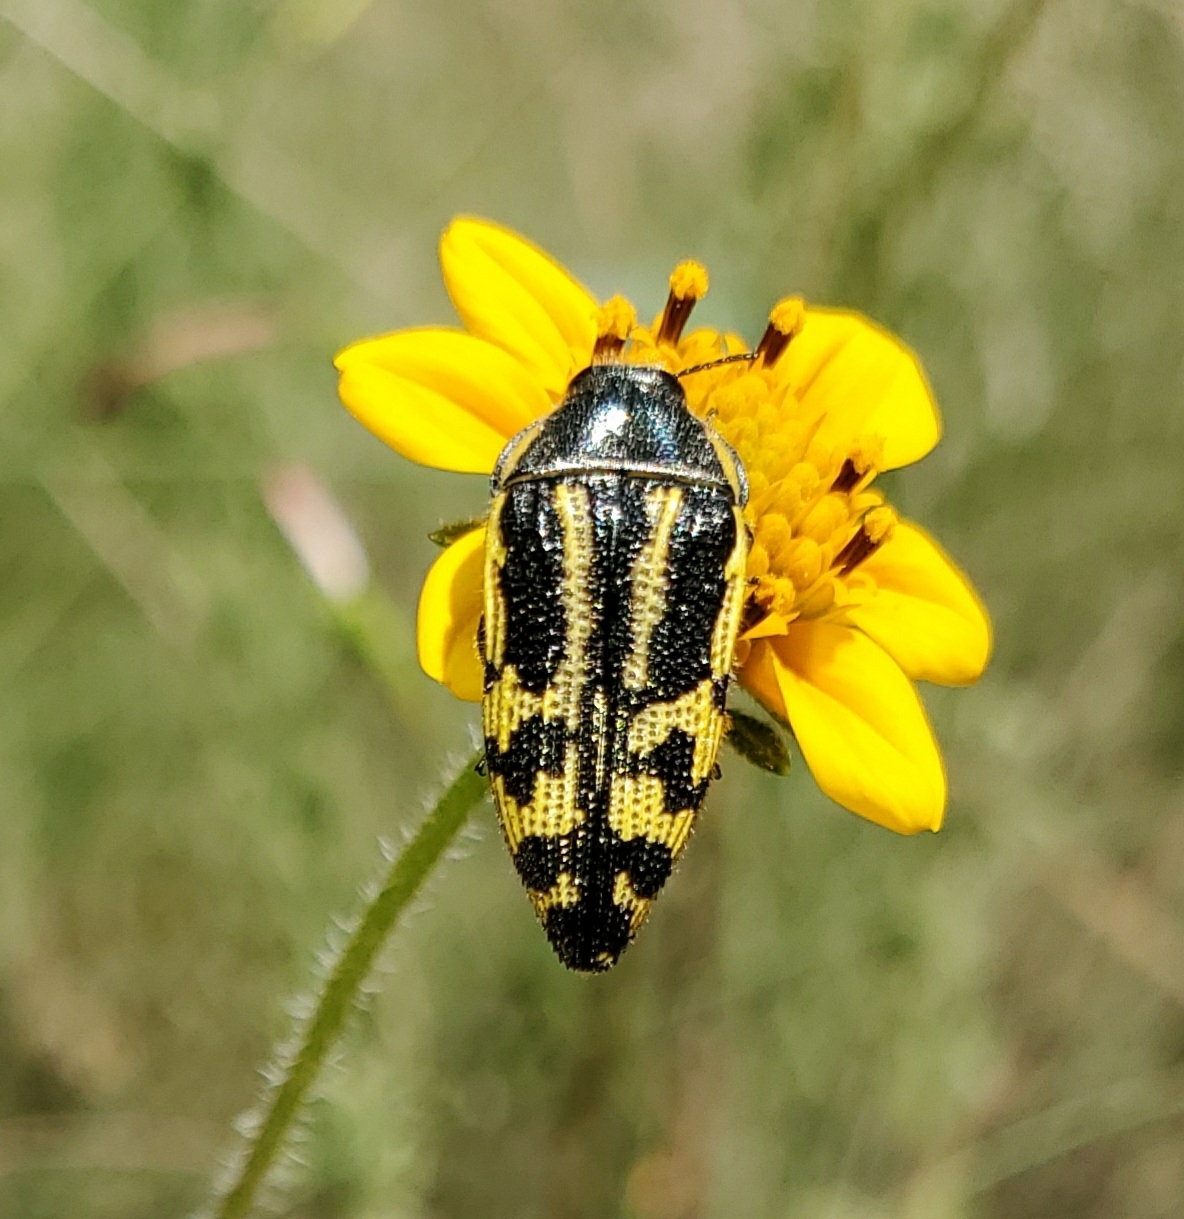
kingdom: Animalia
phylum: Arthropoda
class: Insecta
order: Coleoptera
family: Buprestidae
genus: Acmaeodera
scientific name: Acmaeodera amplicollis
